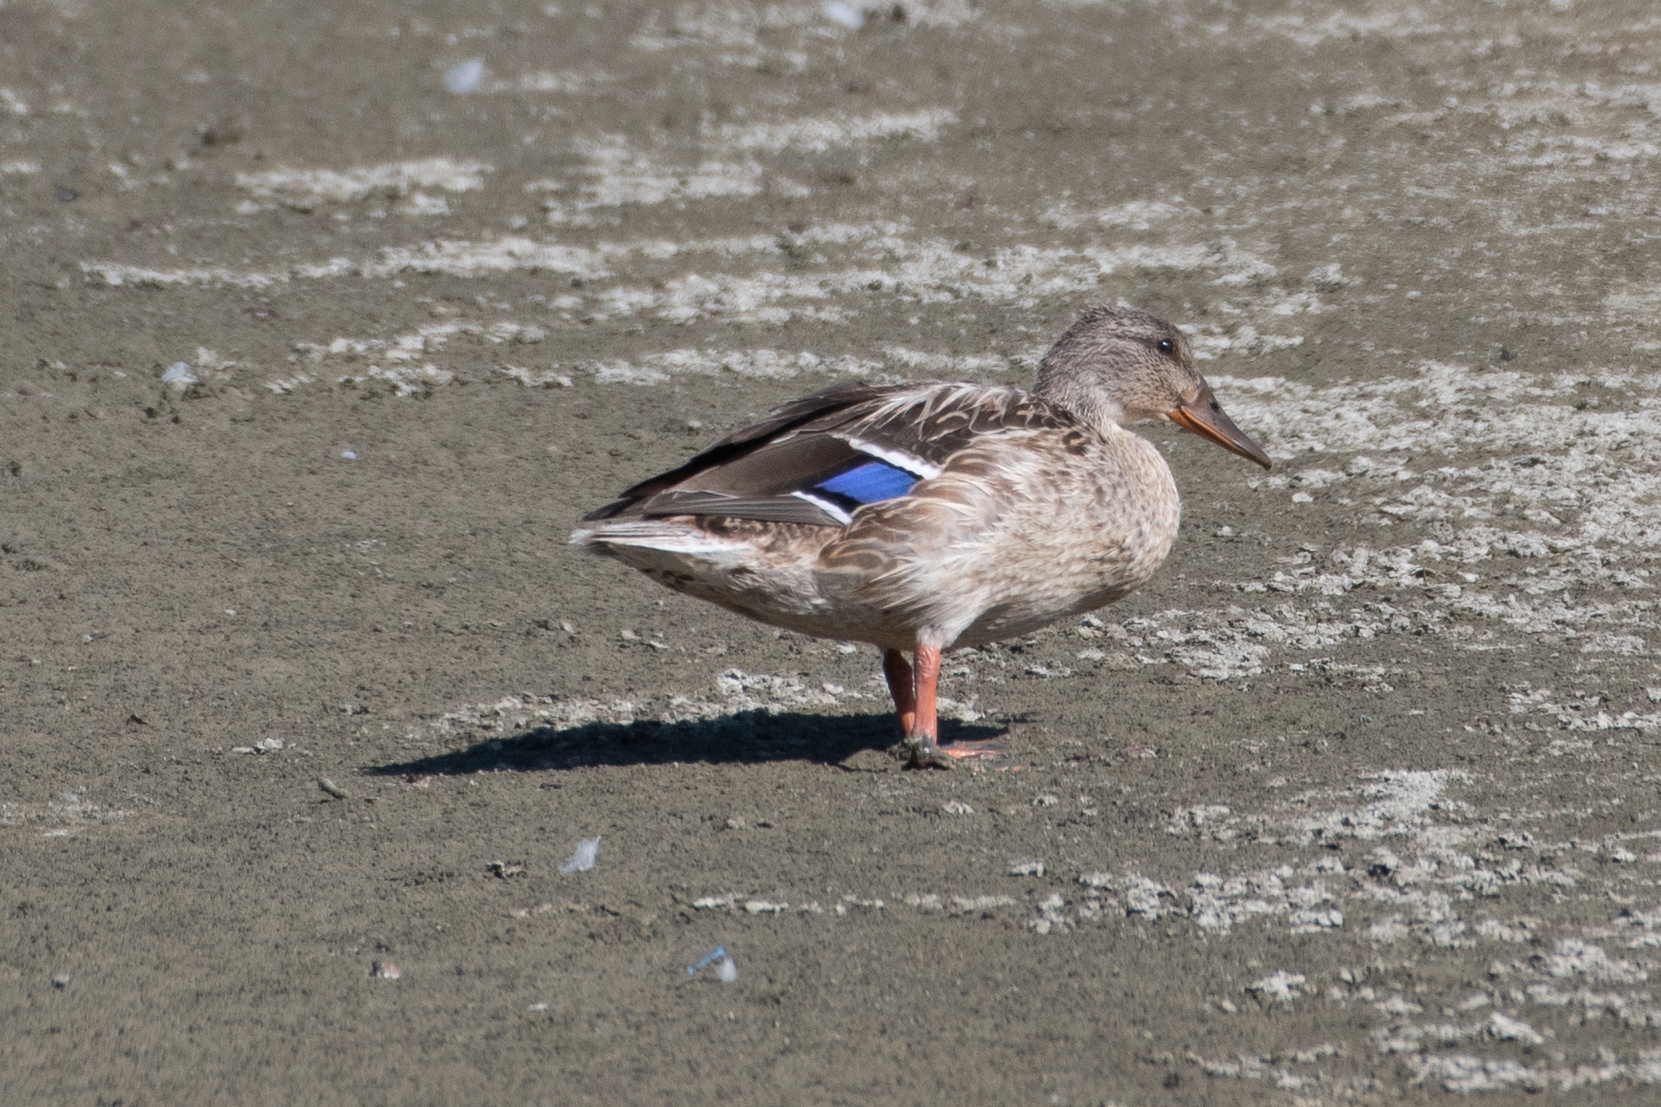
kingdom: Animalia
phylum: Chordata
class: Aves
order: Anseriformes
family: Anatidae
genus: Anas
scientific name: Anas platyrhynchos
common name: Mallard
